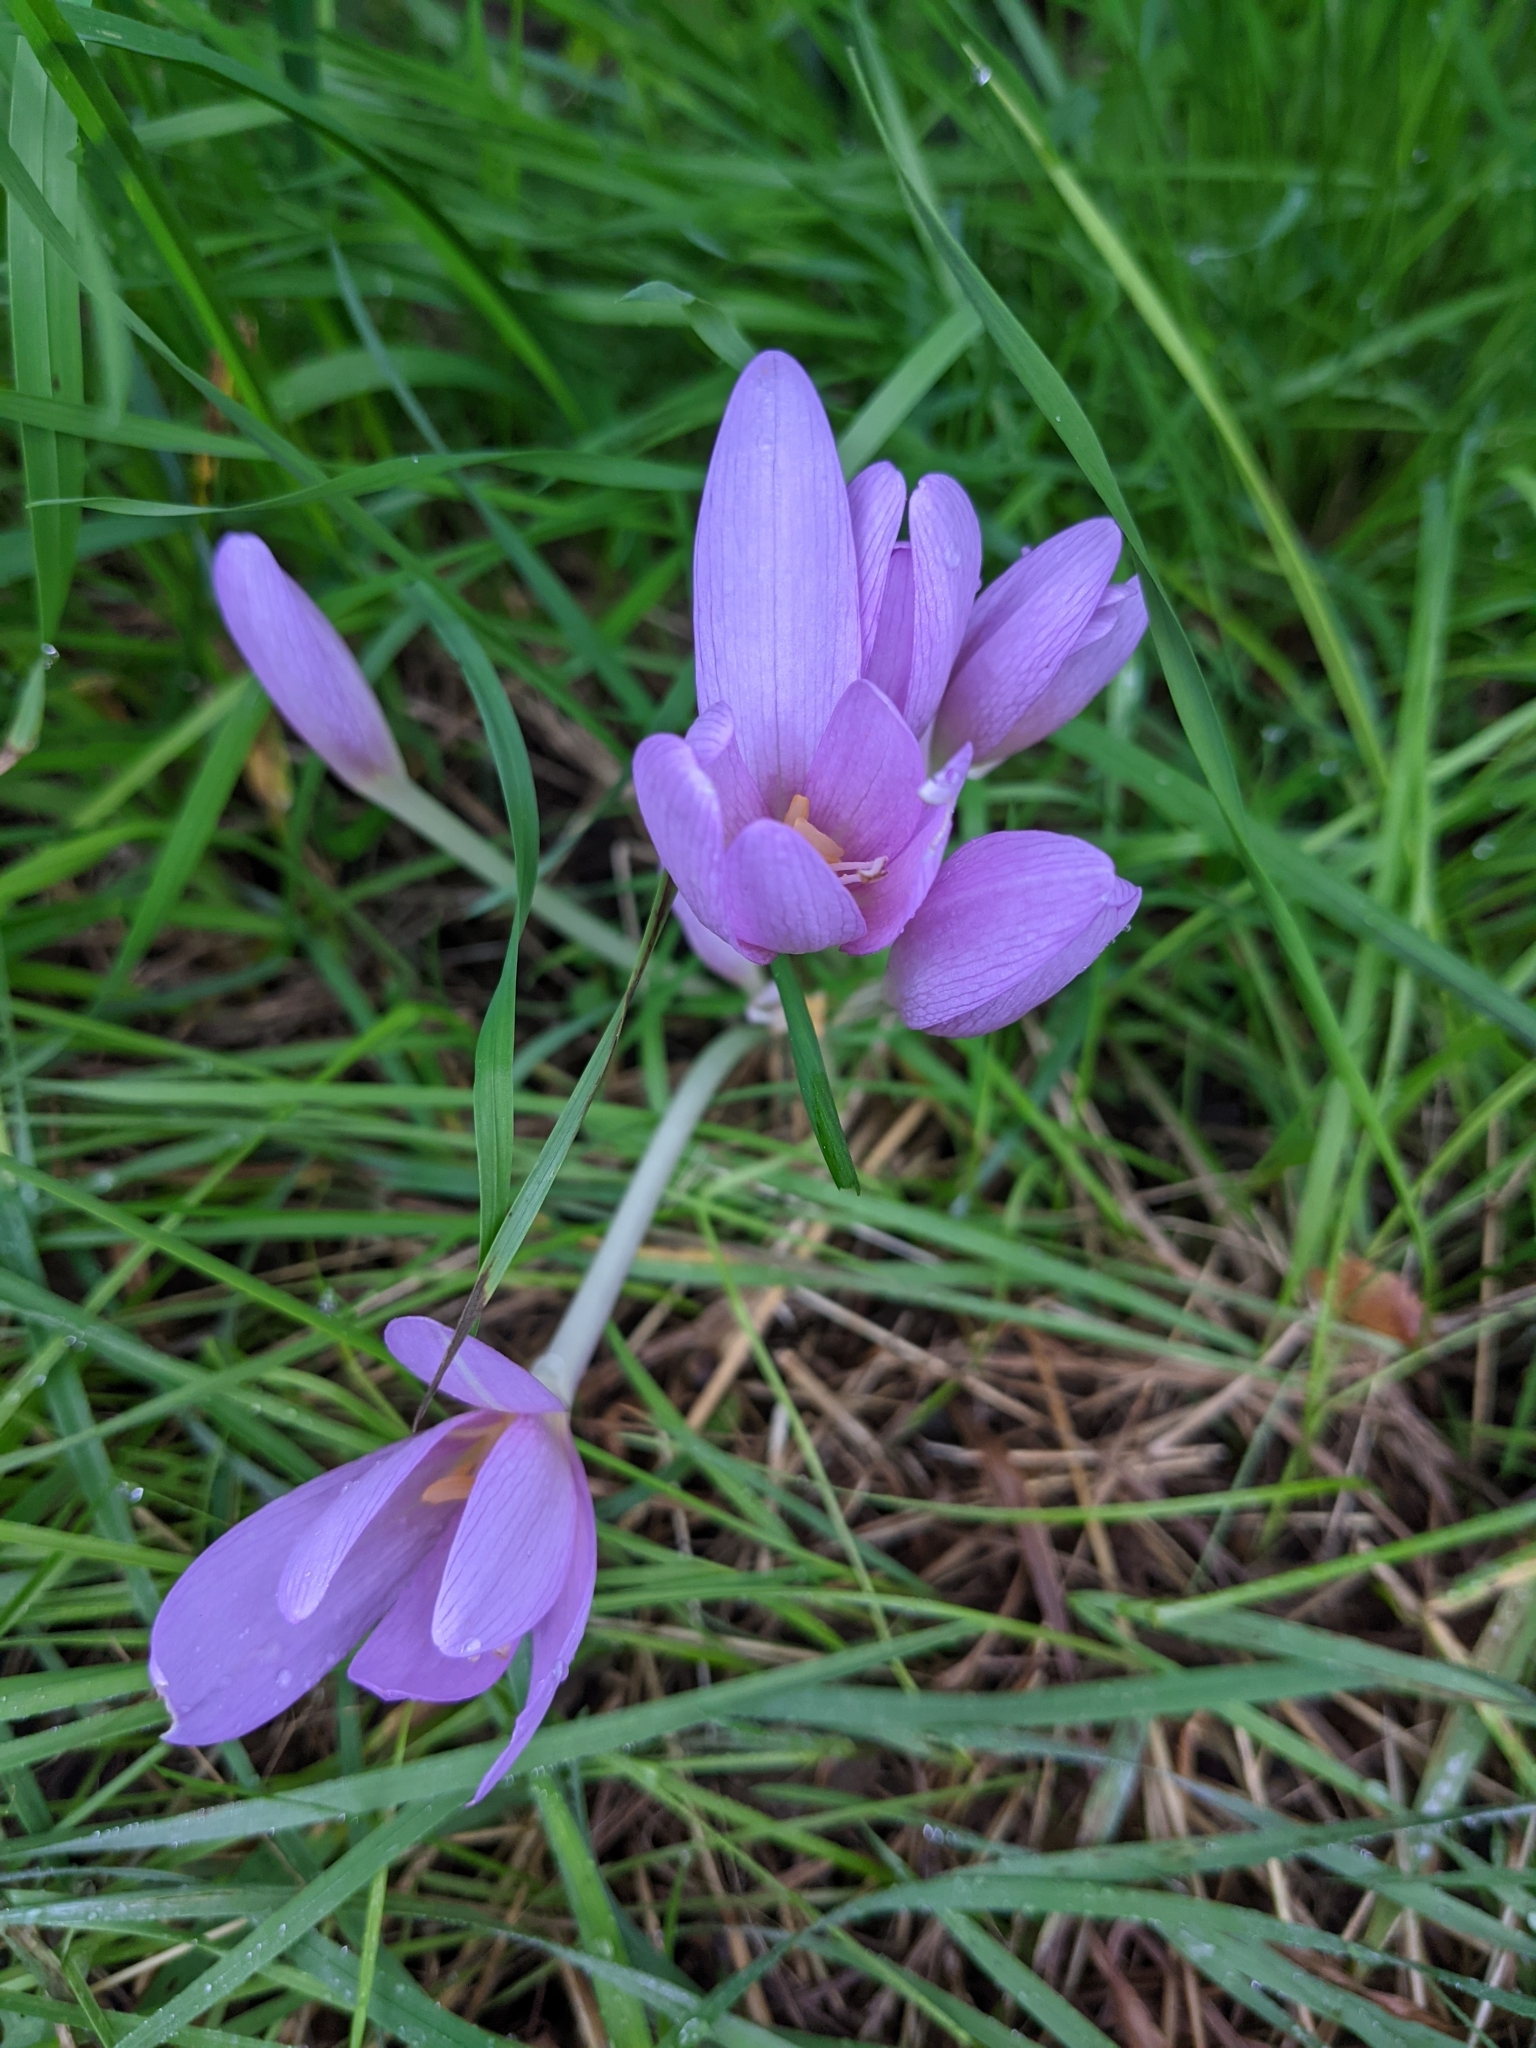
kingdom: Plantae
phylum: Tracheophyta
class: Liliopsida
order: Liliales
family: Colchicaceae
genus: Colchicum
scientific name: Colchicum autumnale
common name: Autumn crocus
